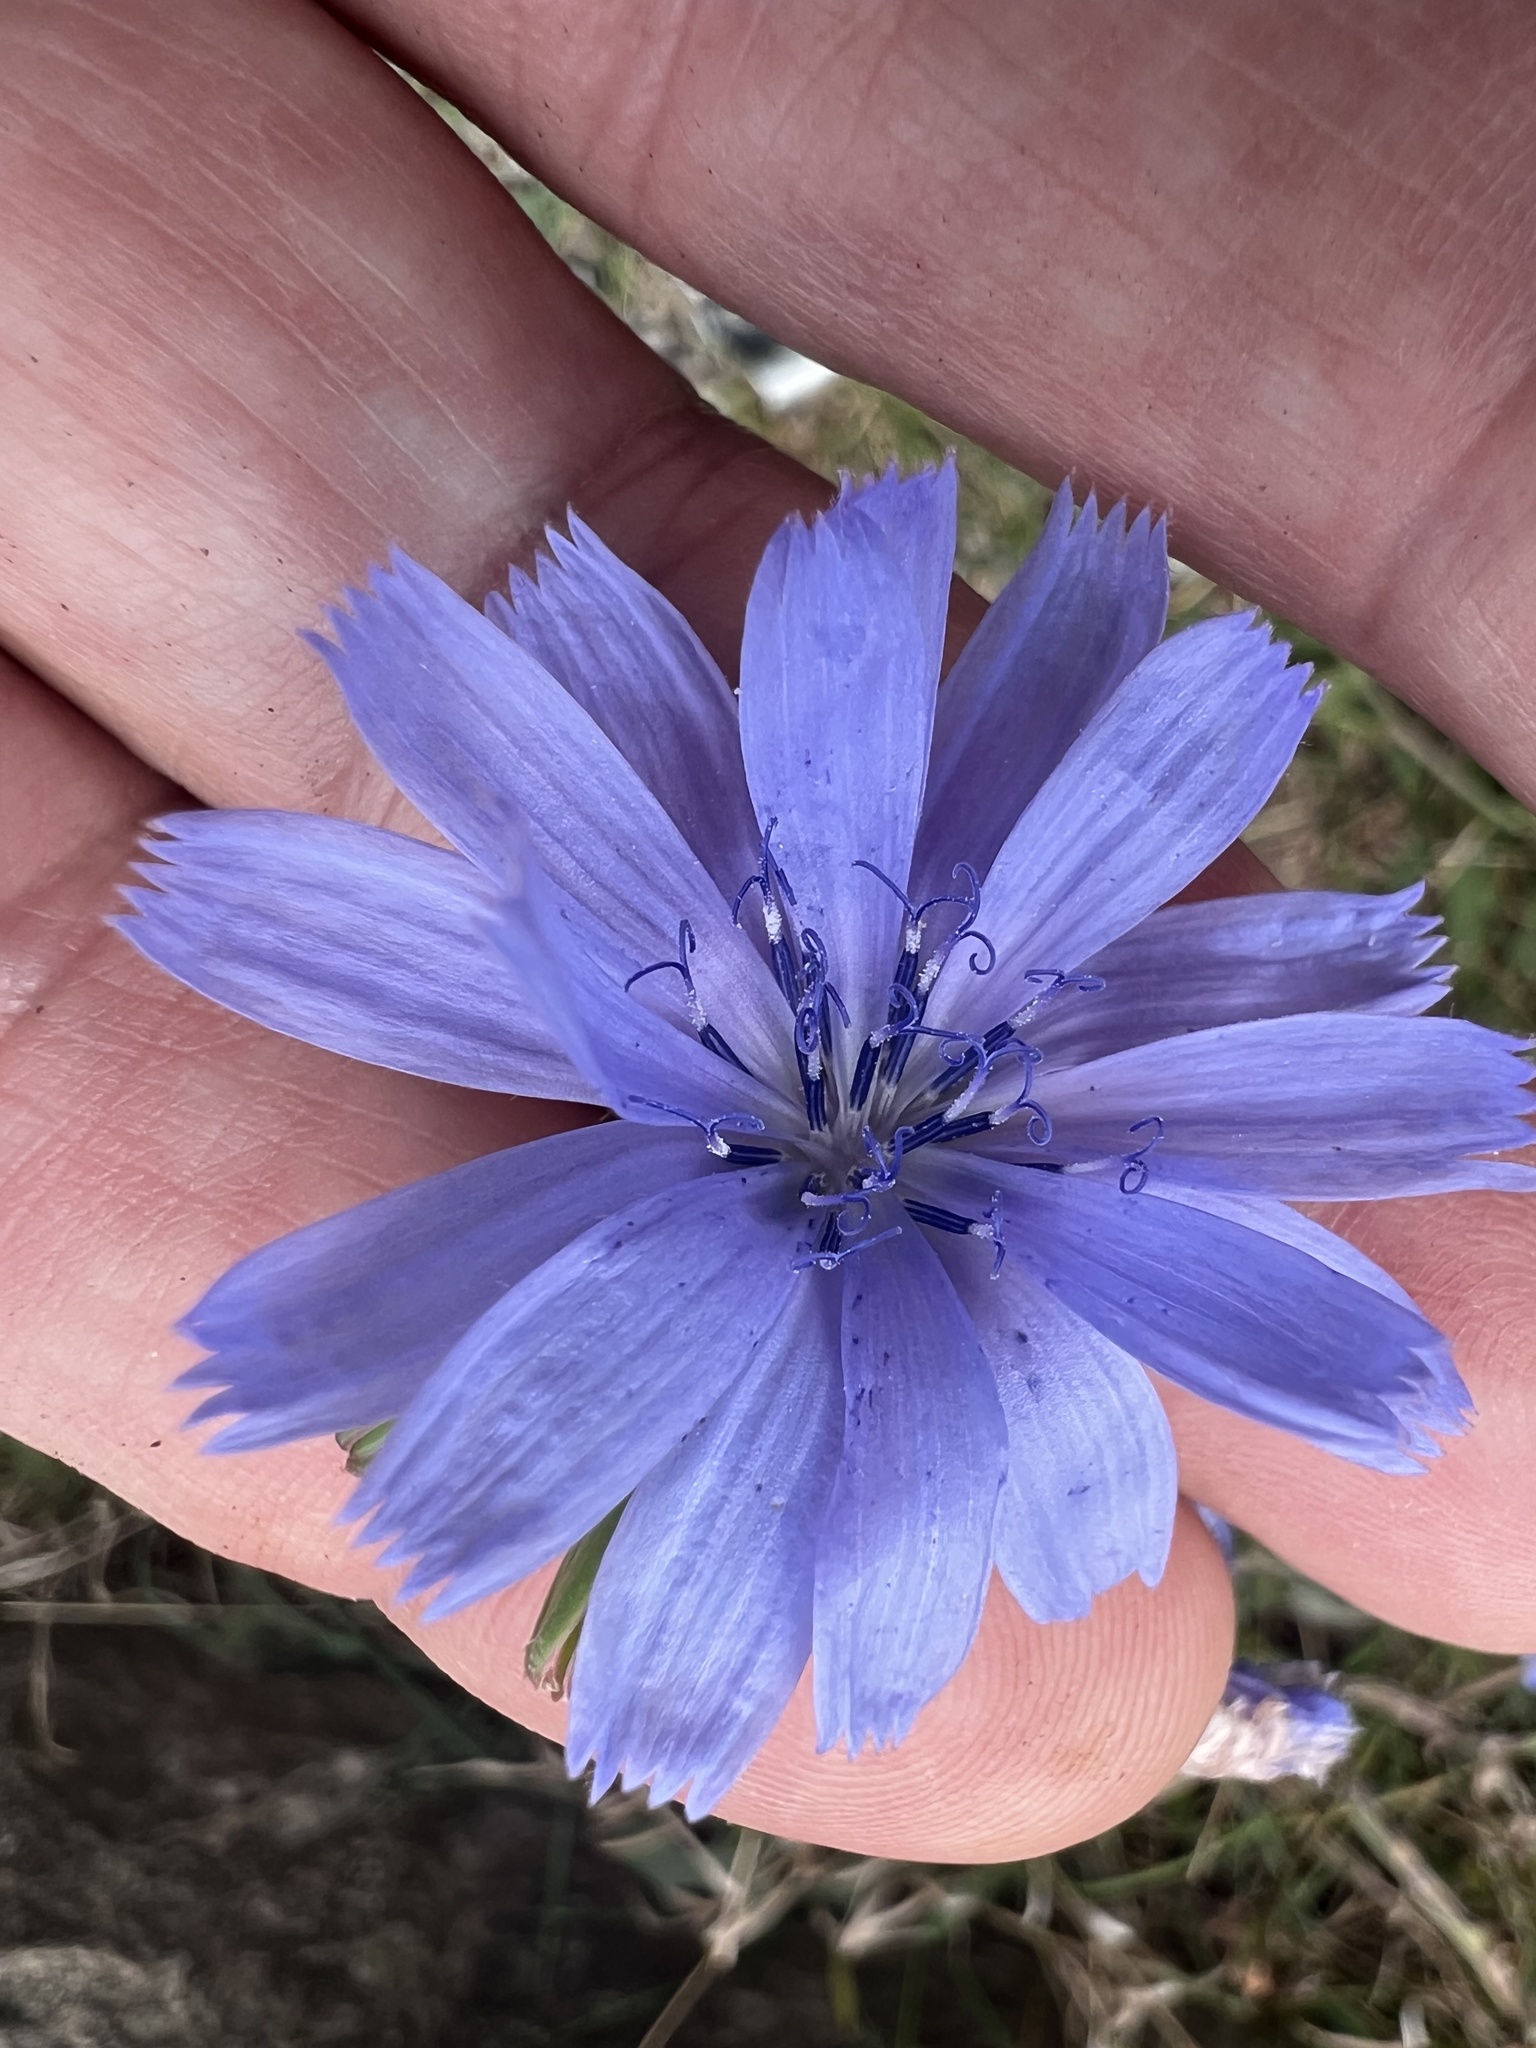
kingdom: Plantae
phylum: Tracheophyta
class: Magnoliopsida
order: Asterales
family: Asteraceae
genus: Cichorium
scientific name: Cichorium intybus
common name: Chicory
